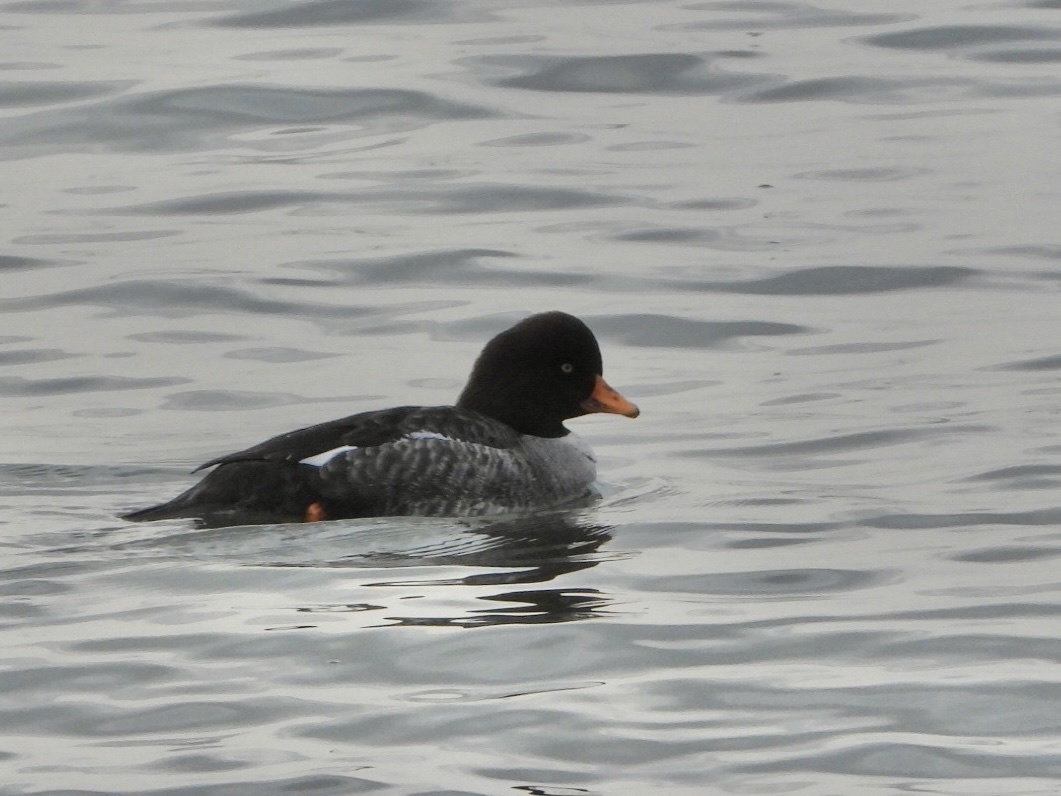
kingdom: Animalia
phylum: Chordata
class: Aves
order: Anseriformes
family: Anatidae
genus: Bucephala
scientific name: Bucephala islandica
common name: Barrow's goldeneye
